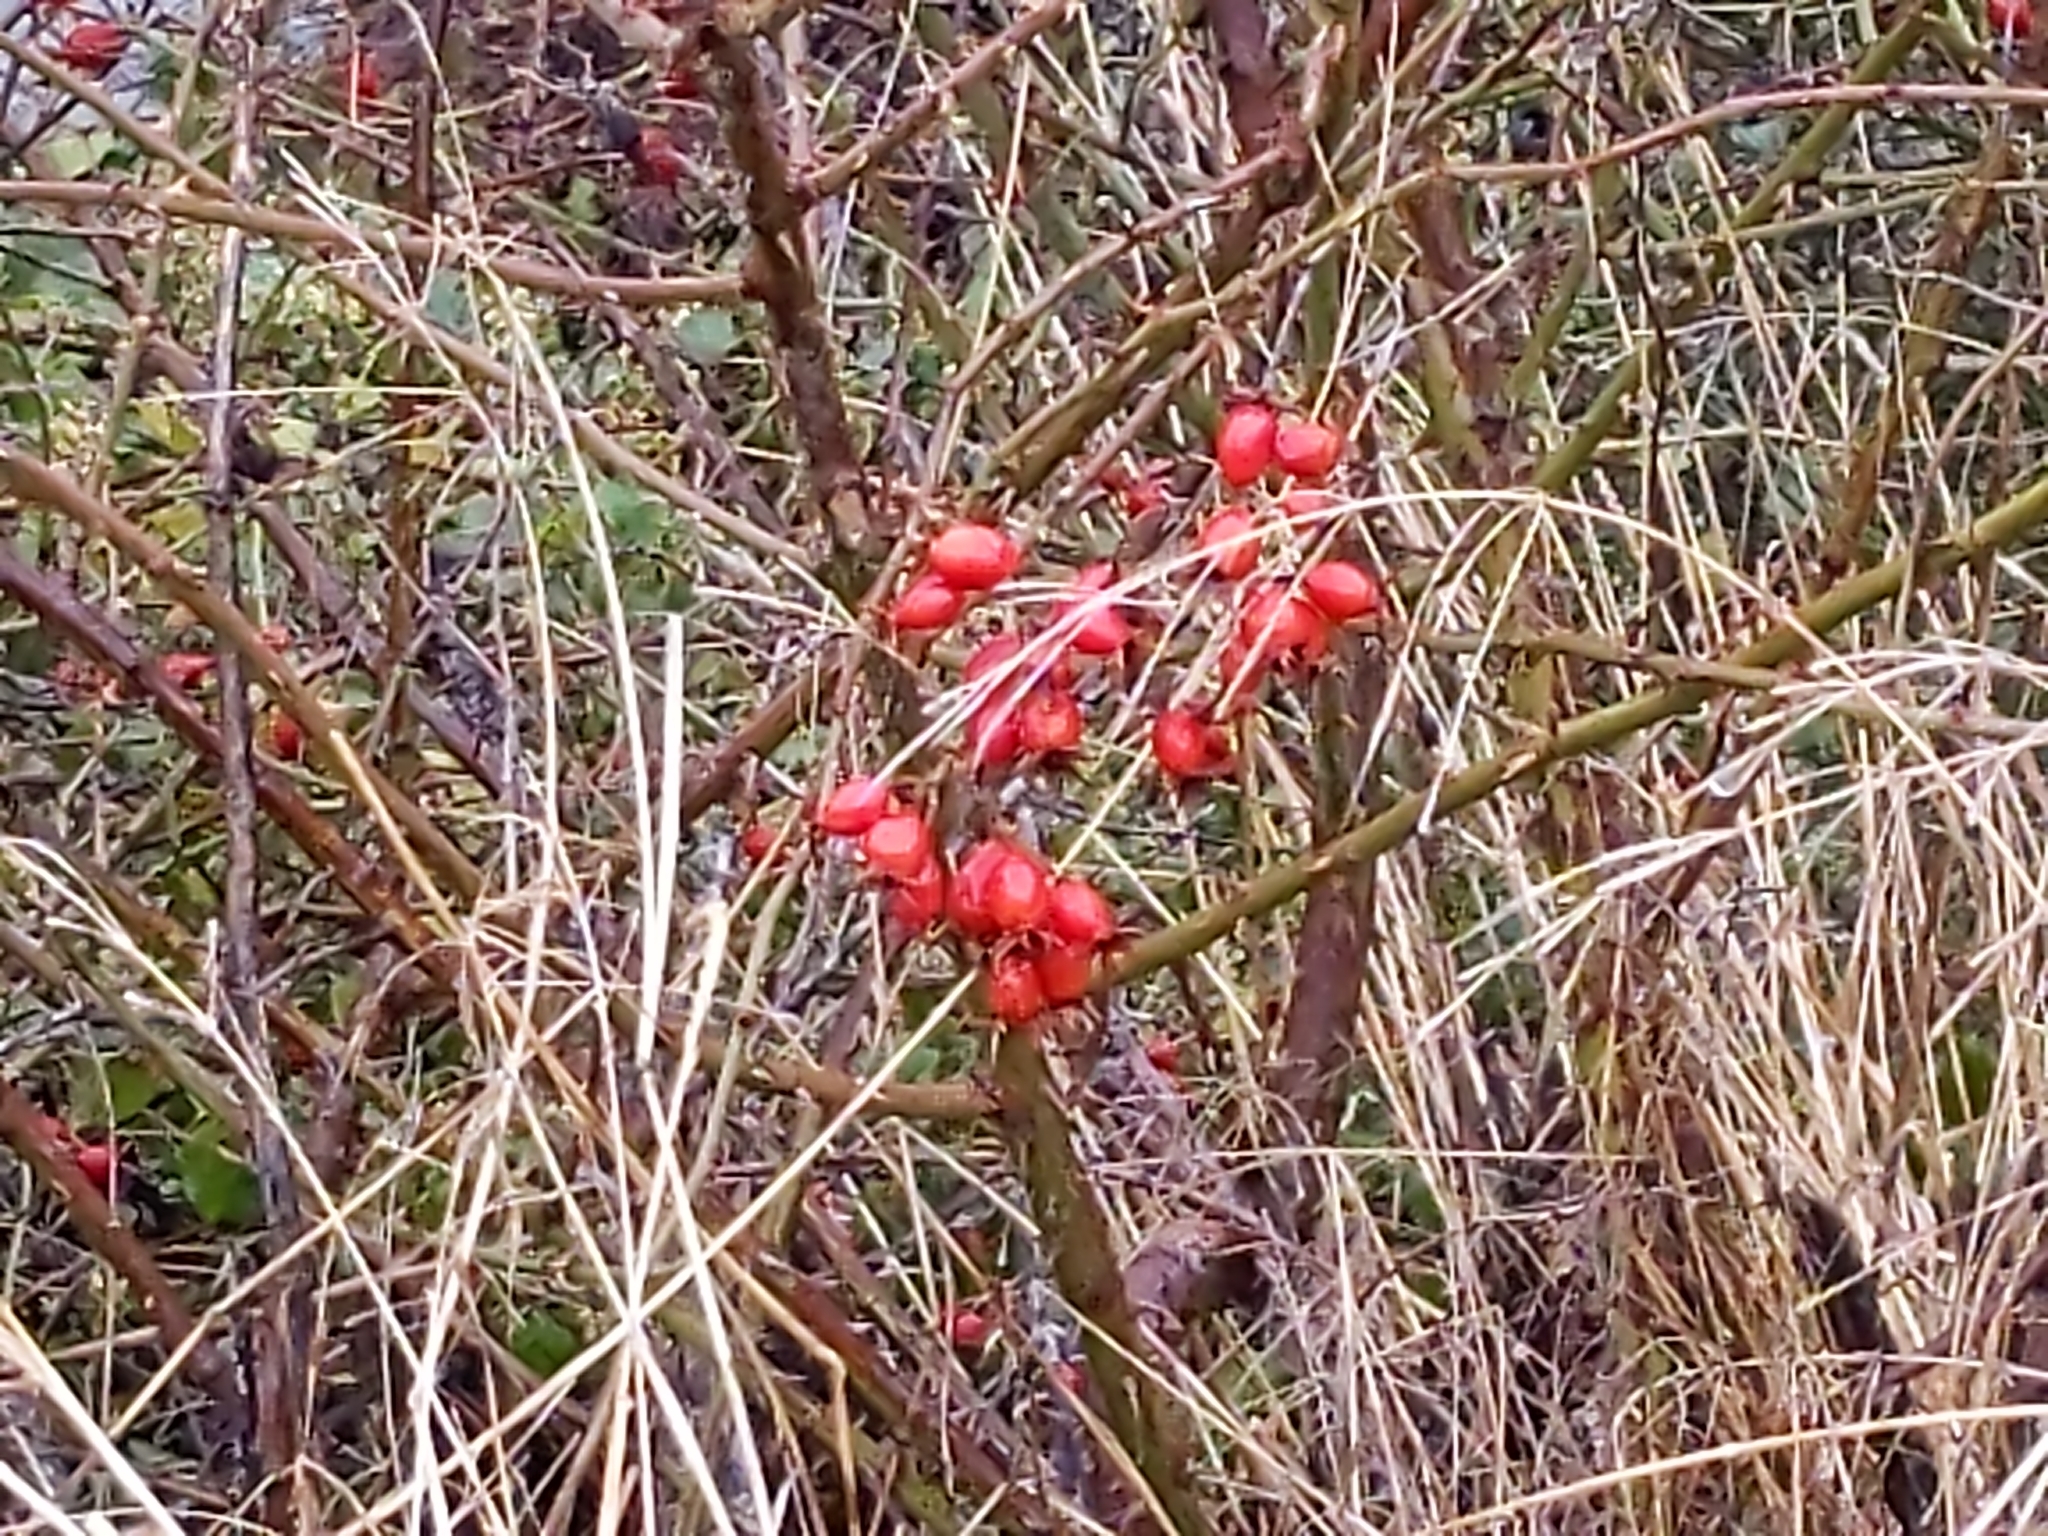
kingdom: Plantae
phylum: Tracheophyta
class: Magnoliopsida
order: Rosales
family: Rosaceae
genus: Rosa
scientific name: Rosa rubiginosa
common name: Sweet-briar
